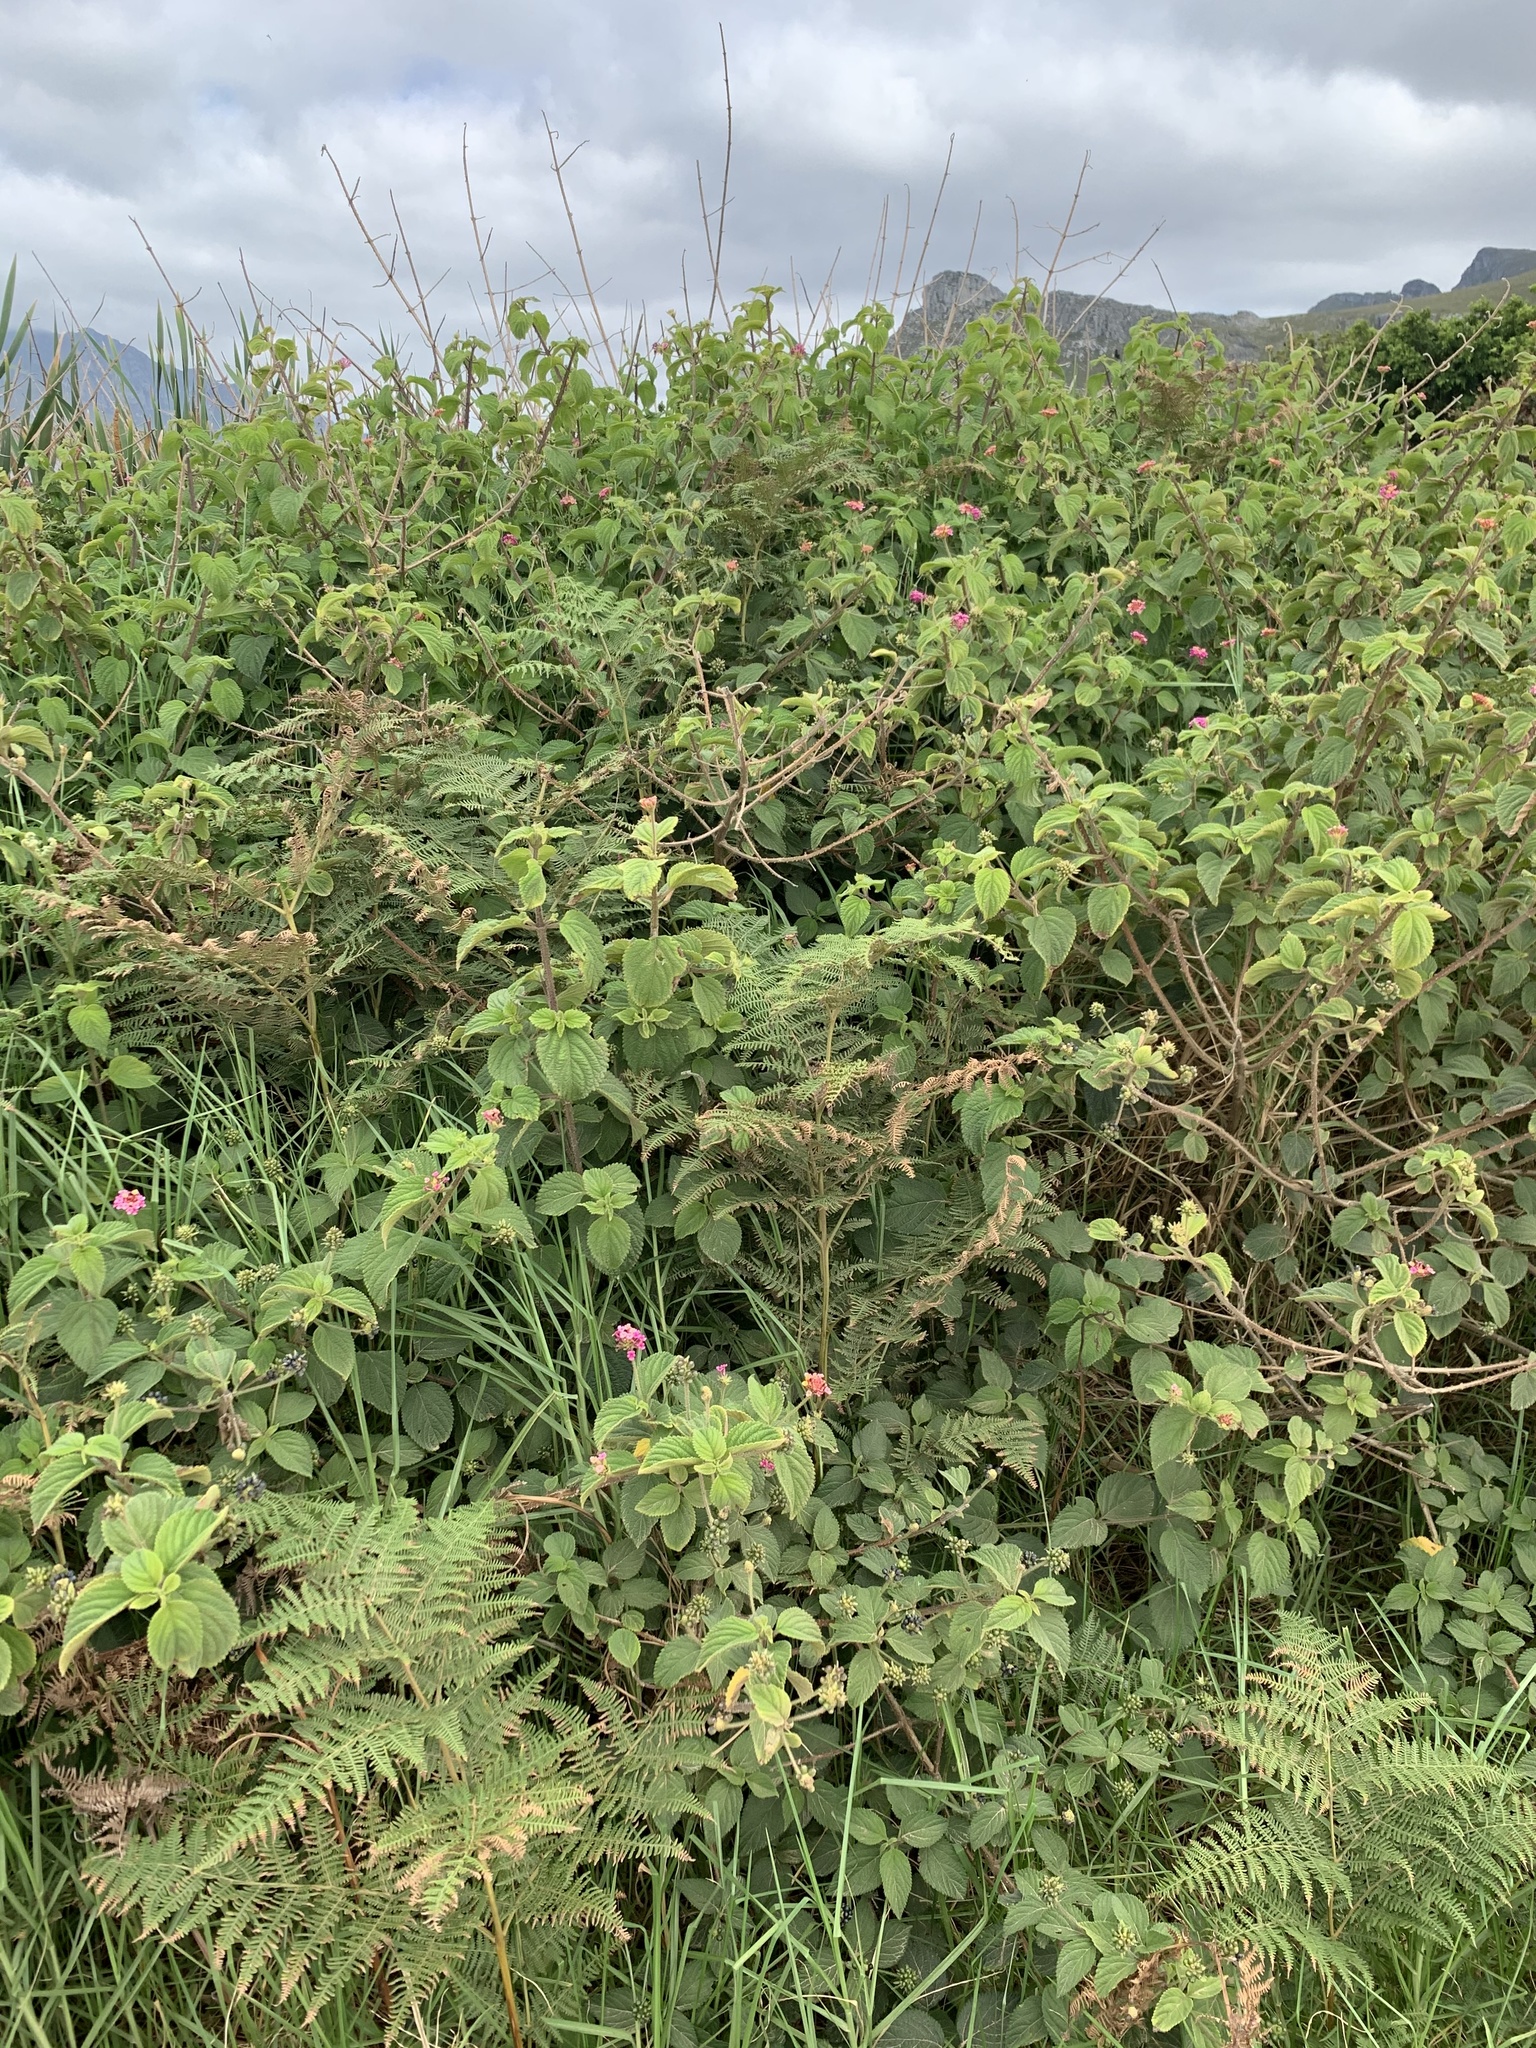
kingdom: Plantae
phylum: Tracheophyta
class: Magnoliopsida
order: Lamiales
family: Verbenaceae
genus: Lantana
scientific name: Lantana camara
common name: Lantana
